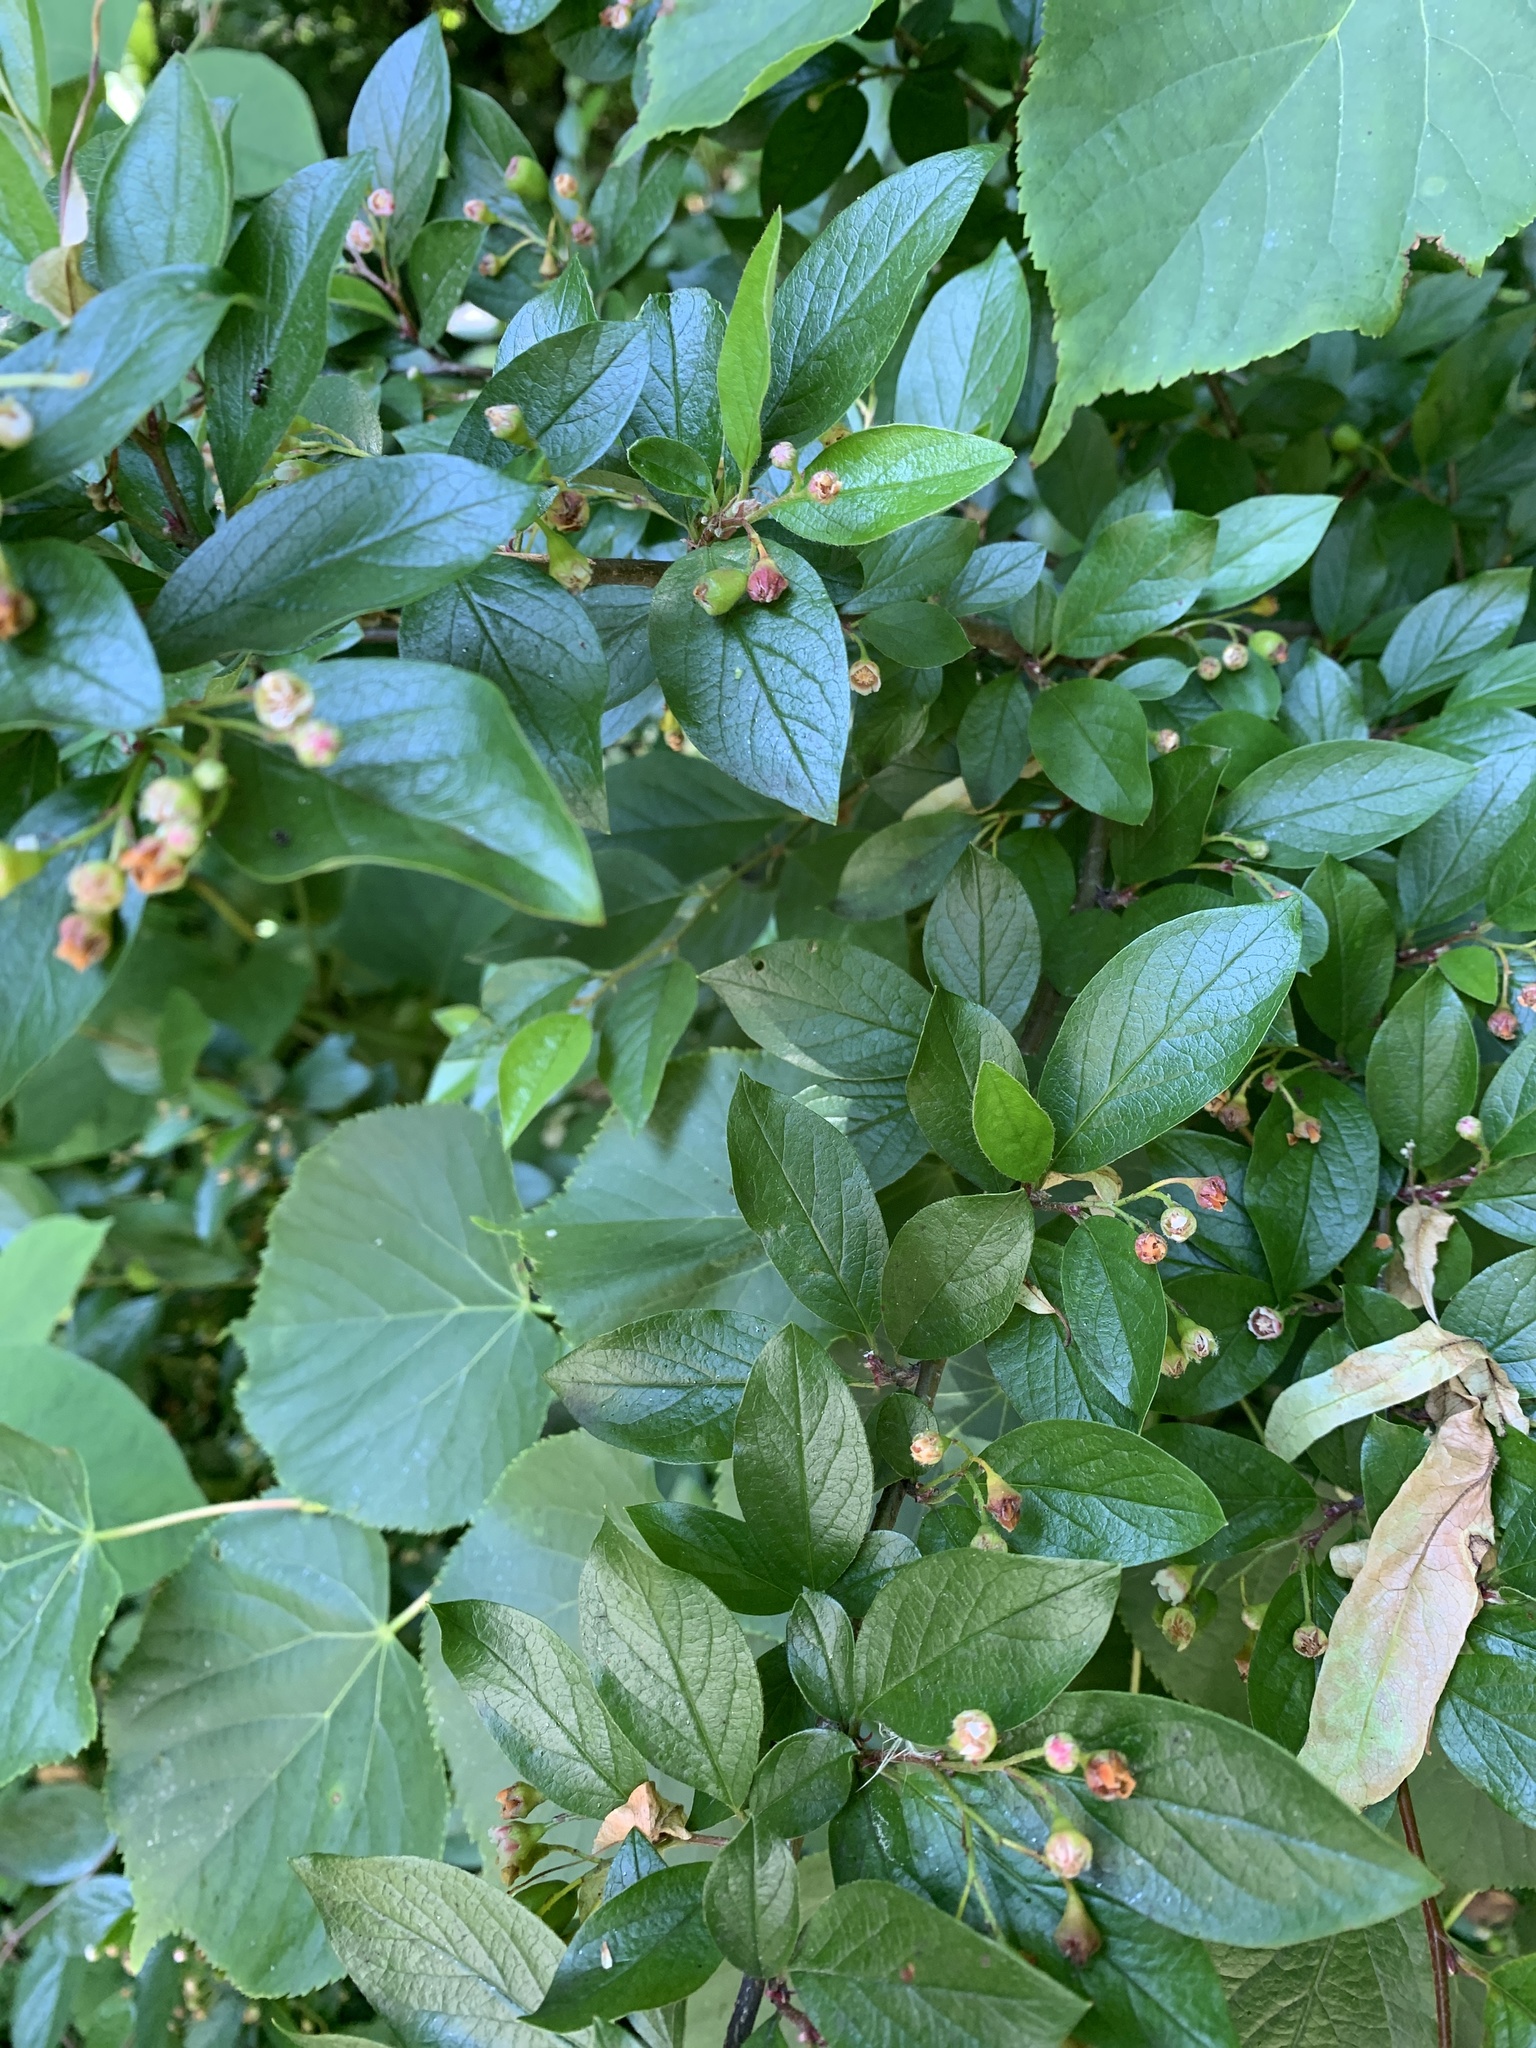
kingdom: Plantae
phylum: Tracheophyta
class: Magnoliopsida
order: Rosales
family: Rosaceae
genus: Cotoneaster
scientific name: Cotoneaster acutifolius
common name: Peking cotoneaster
